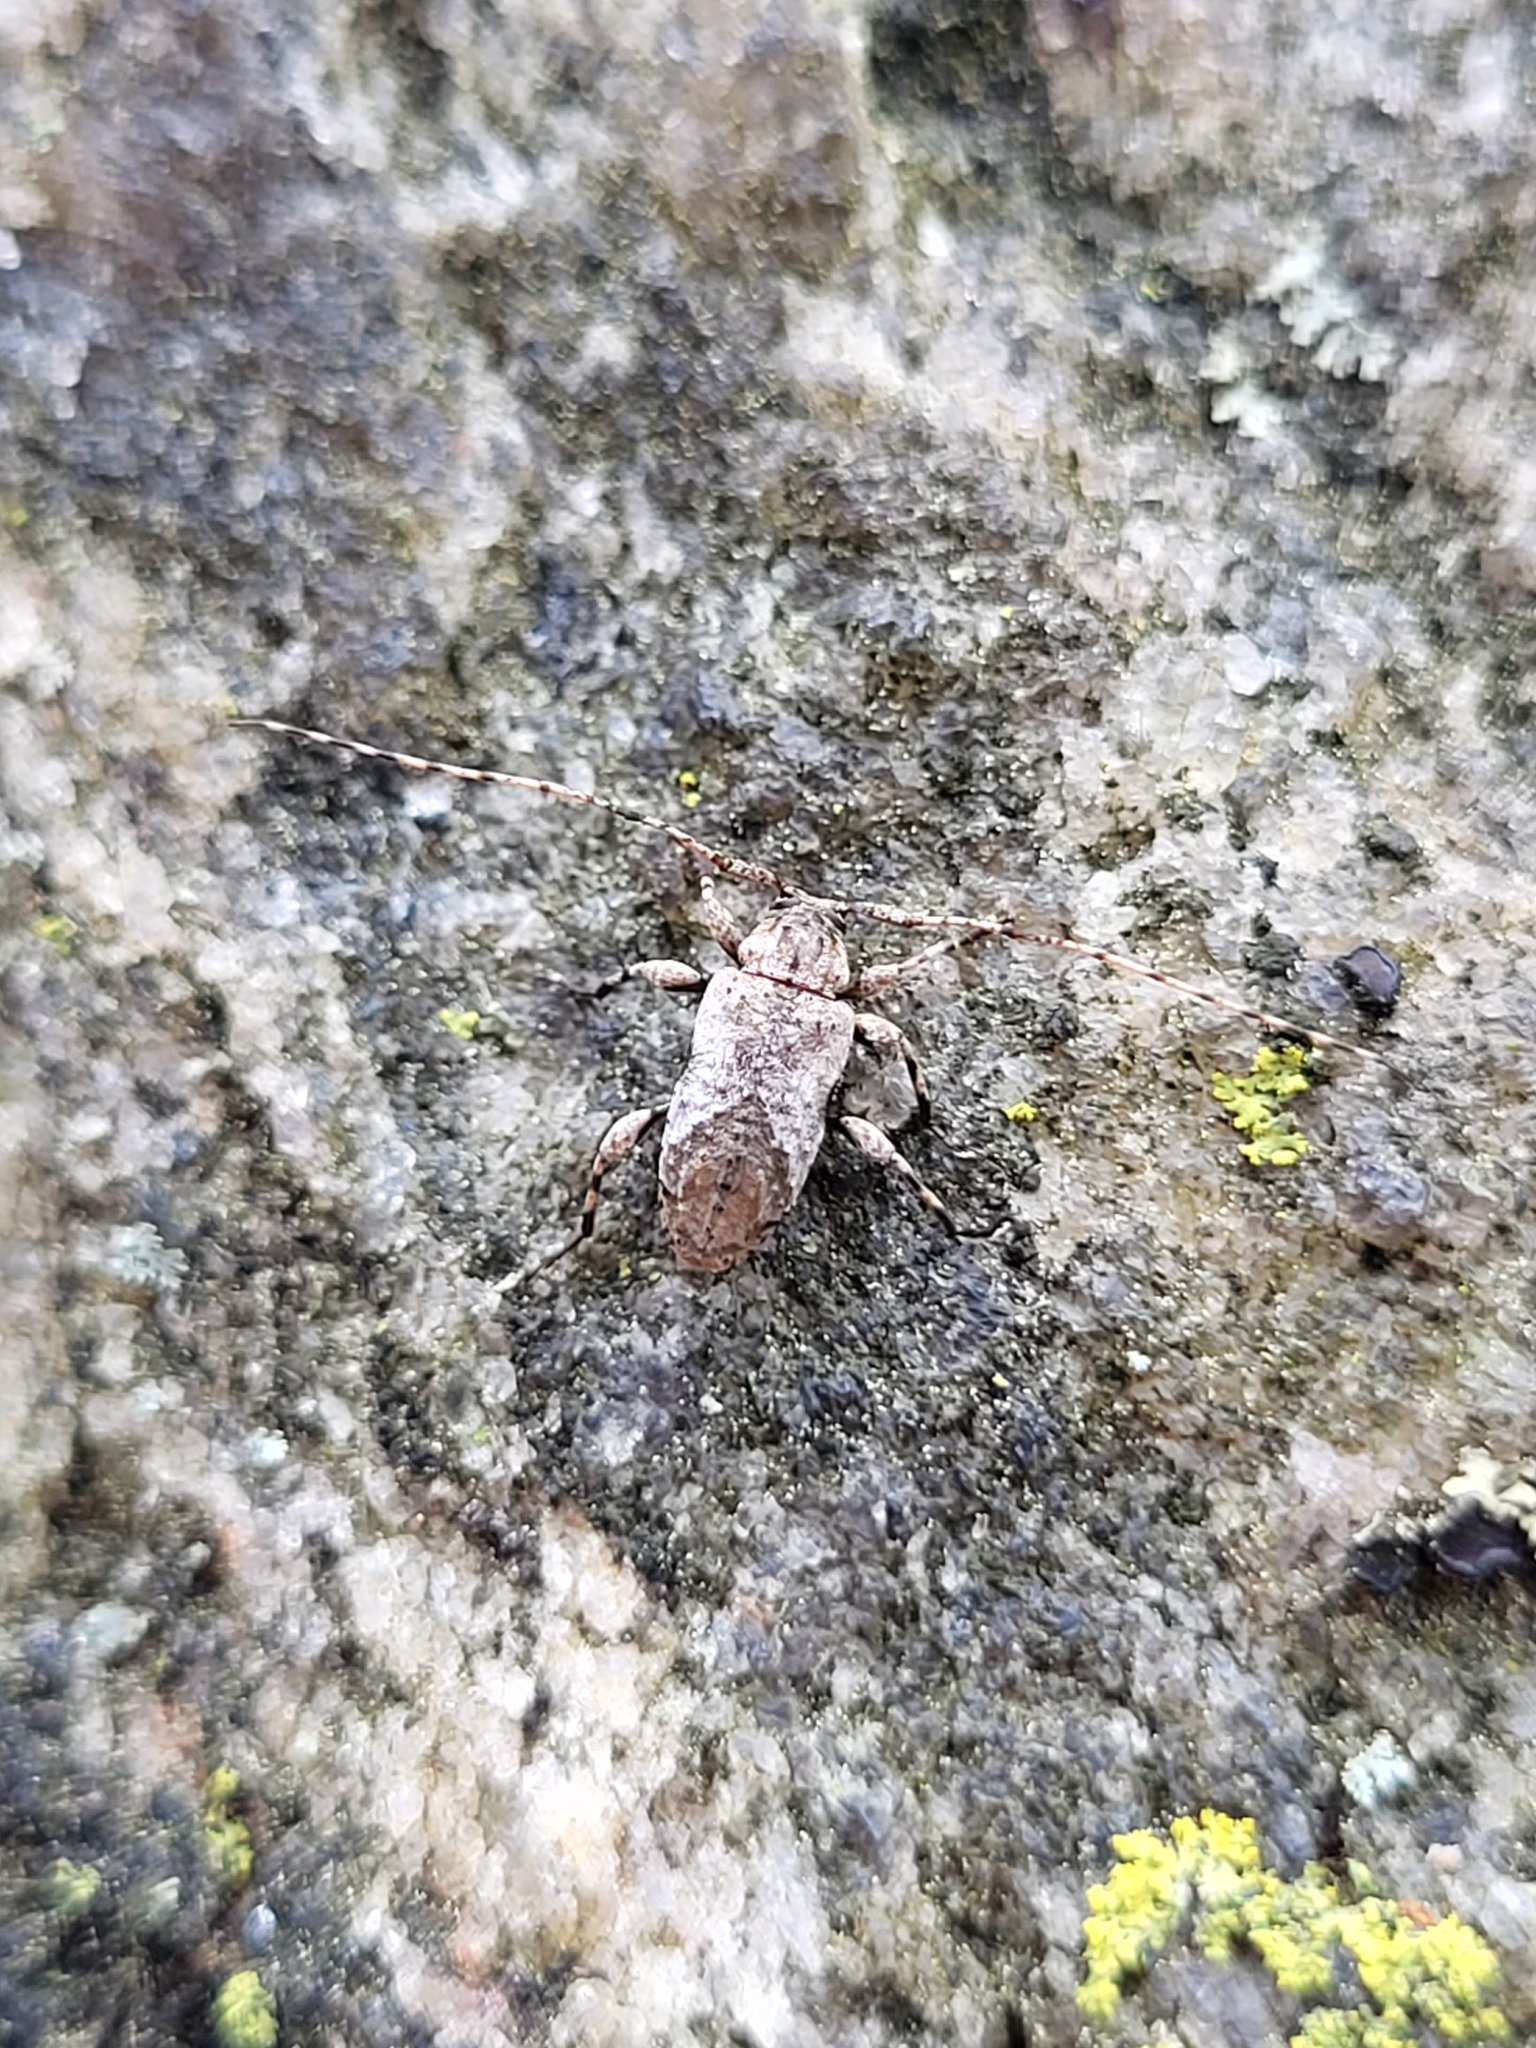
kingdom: Animalia
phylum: Arthropoda
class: Insecta
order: Coleoptera
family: Cerambycidae
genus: Styloleptus
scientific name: Styloleptus biustus
